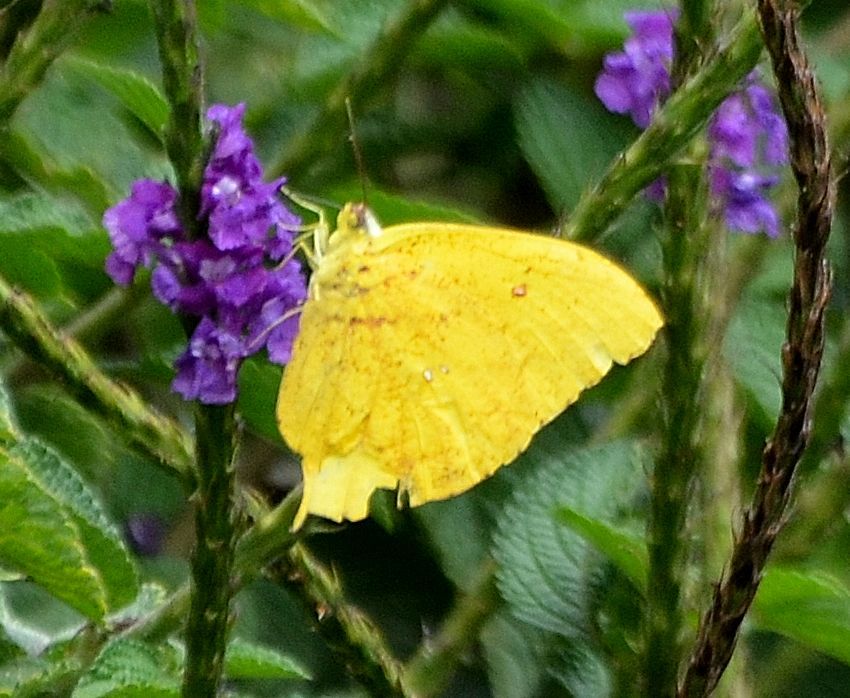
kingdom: Animalia
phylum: Arthropoda
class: Insecta
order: Lepidoptera
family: Pieridae
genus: Phoebis
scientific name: Phoebis neocypris
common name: Tailed sulphur
